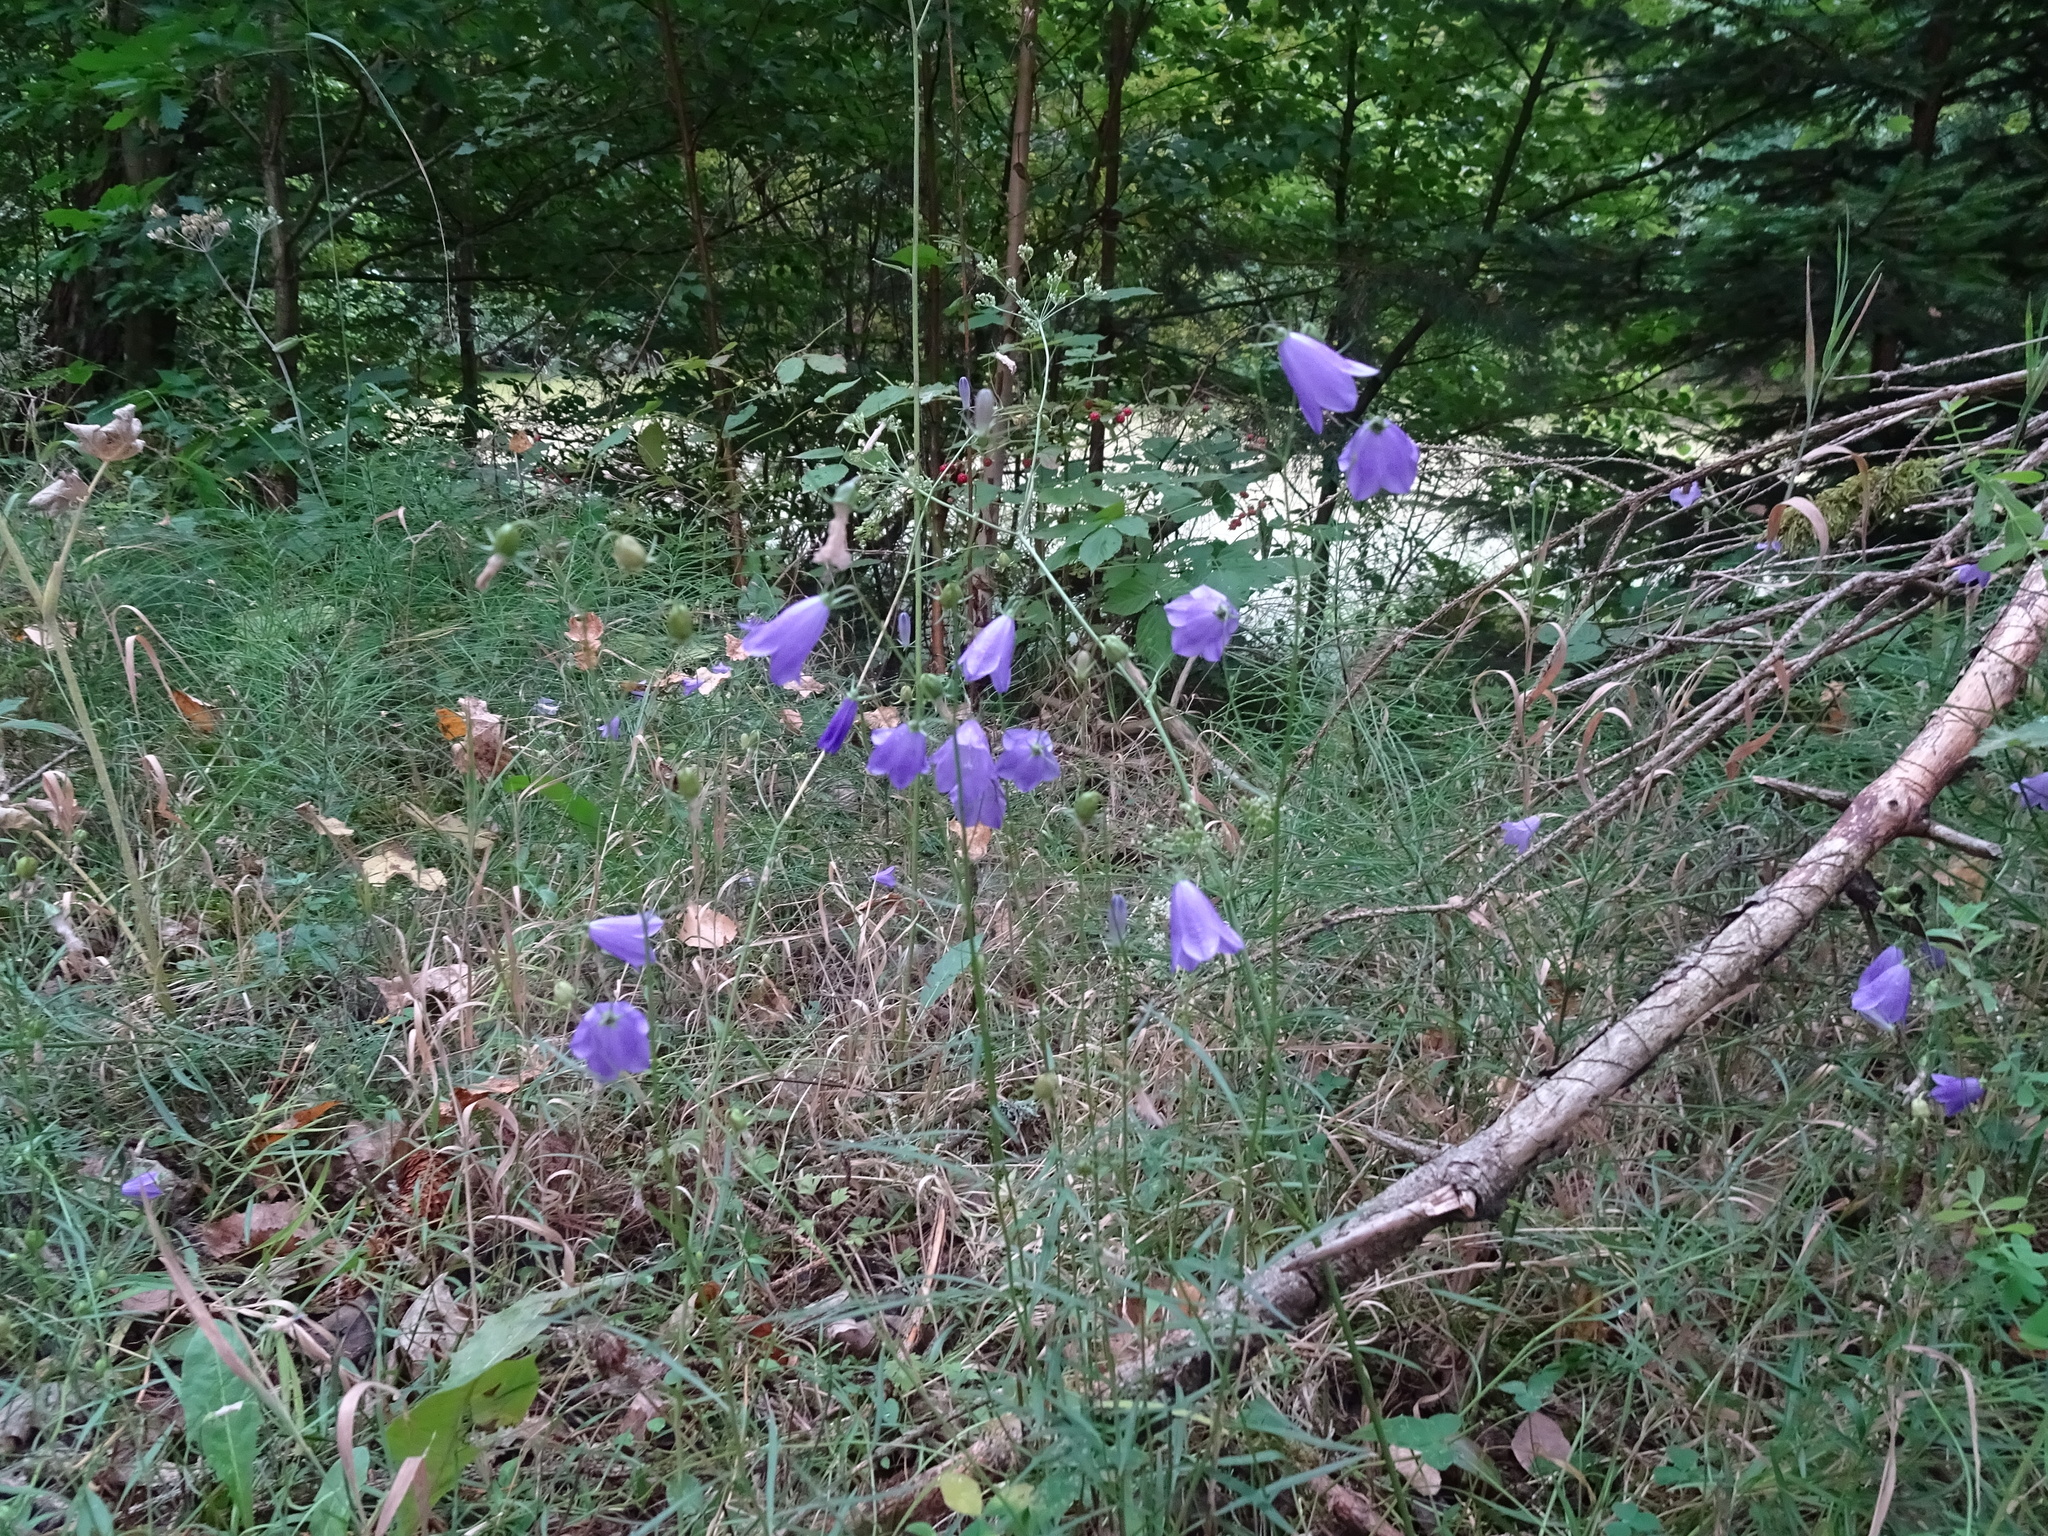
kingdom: Plantae
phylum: Tracheophyta
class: Magnoliopsida
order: Asterales
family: Campanulaceae
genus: Campanula
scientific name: Campanula rotundifolia
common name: Harebell
